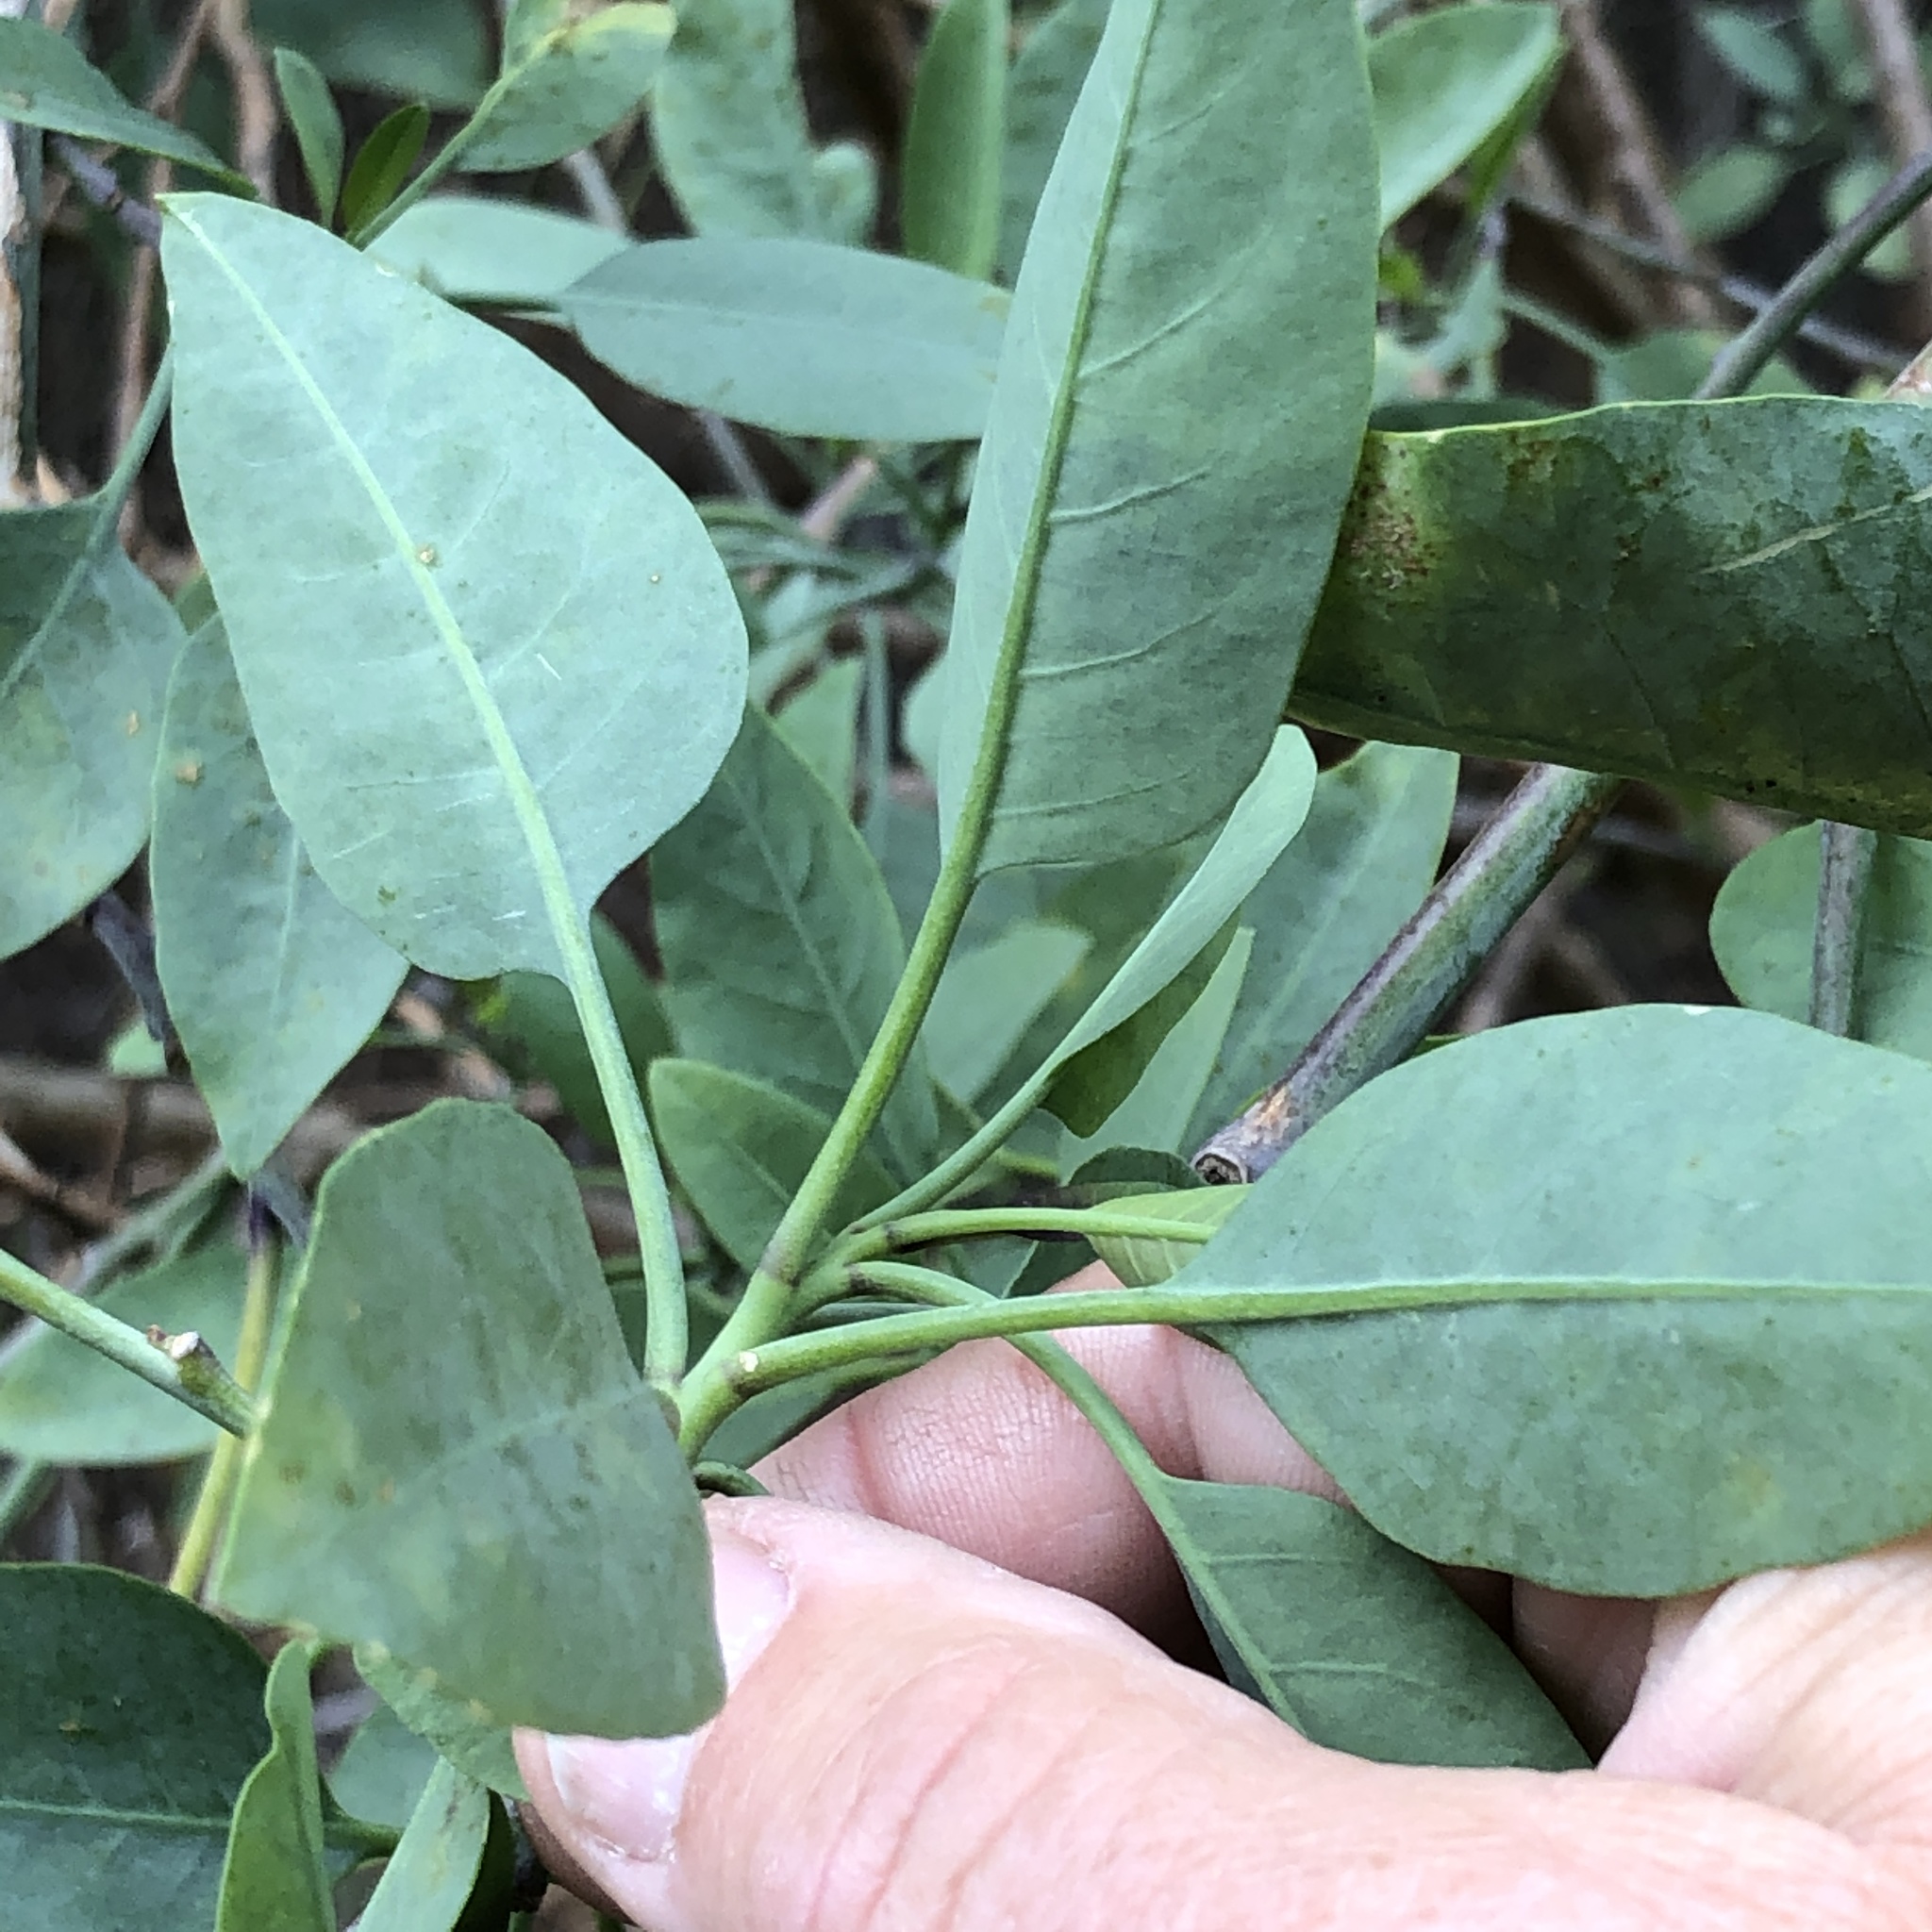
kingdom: Plantae
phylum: Tracheophyta
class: Magnoliopsida
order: Solanales
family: Solanaceae
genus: Nicotiana
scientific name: Nicotiana glauca
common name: Tree tobacco
